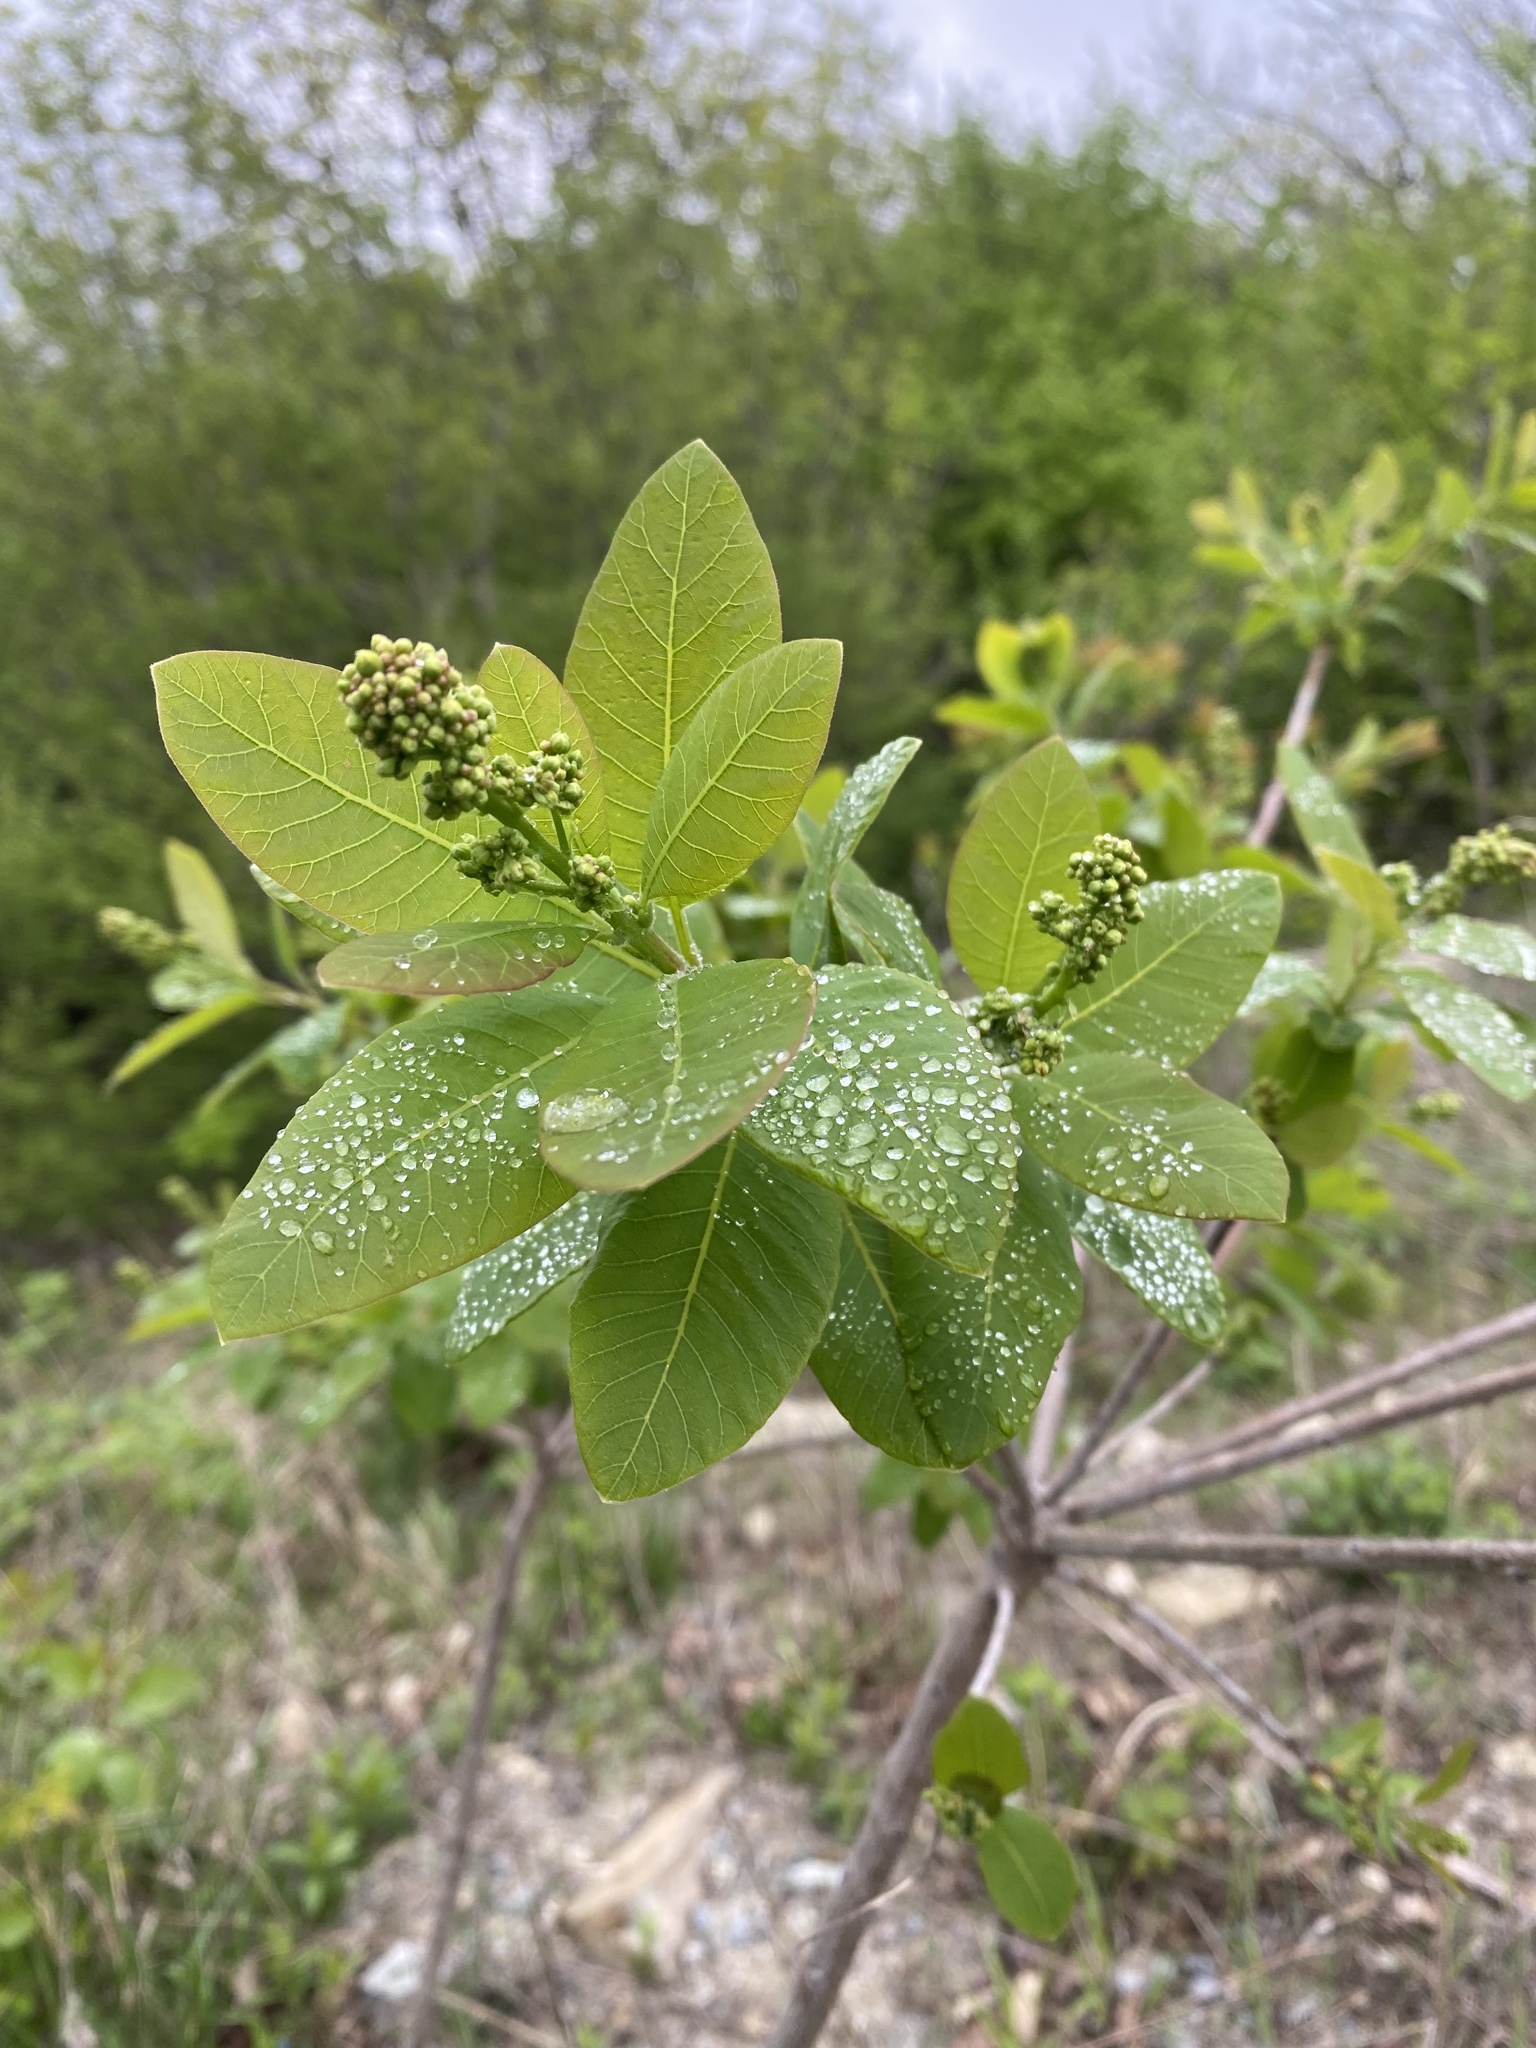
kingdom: Plantae
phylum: Tracheophyta
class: Magnoliopsida
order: Sapindales
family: Anacardiaceae
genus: Cotinus
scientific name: Cotinus coggygria
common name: Smoke-tree
